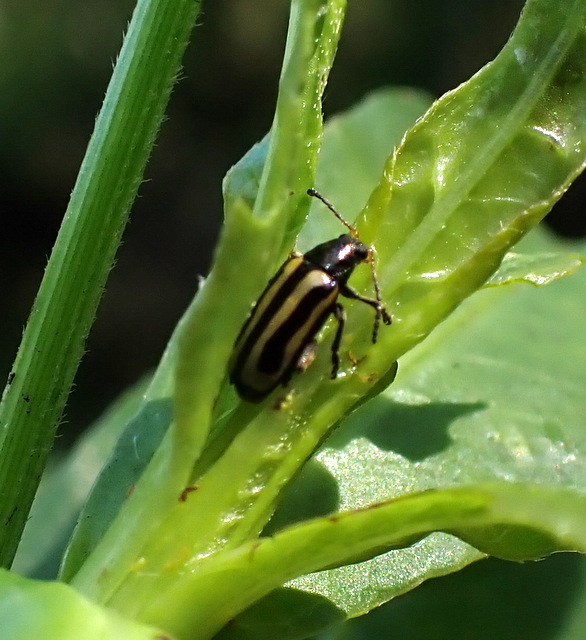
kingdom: Animalia
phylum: Arthropoda
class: Insecta
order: Coleoptera
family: Chrysomelidae
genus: Agasicles
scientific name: Agasicles hygrophila
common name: Alligatorweed flea beetle
